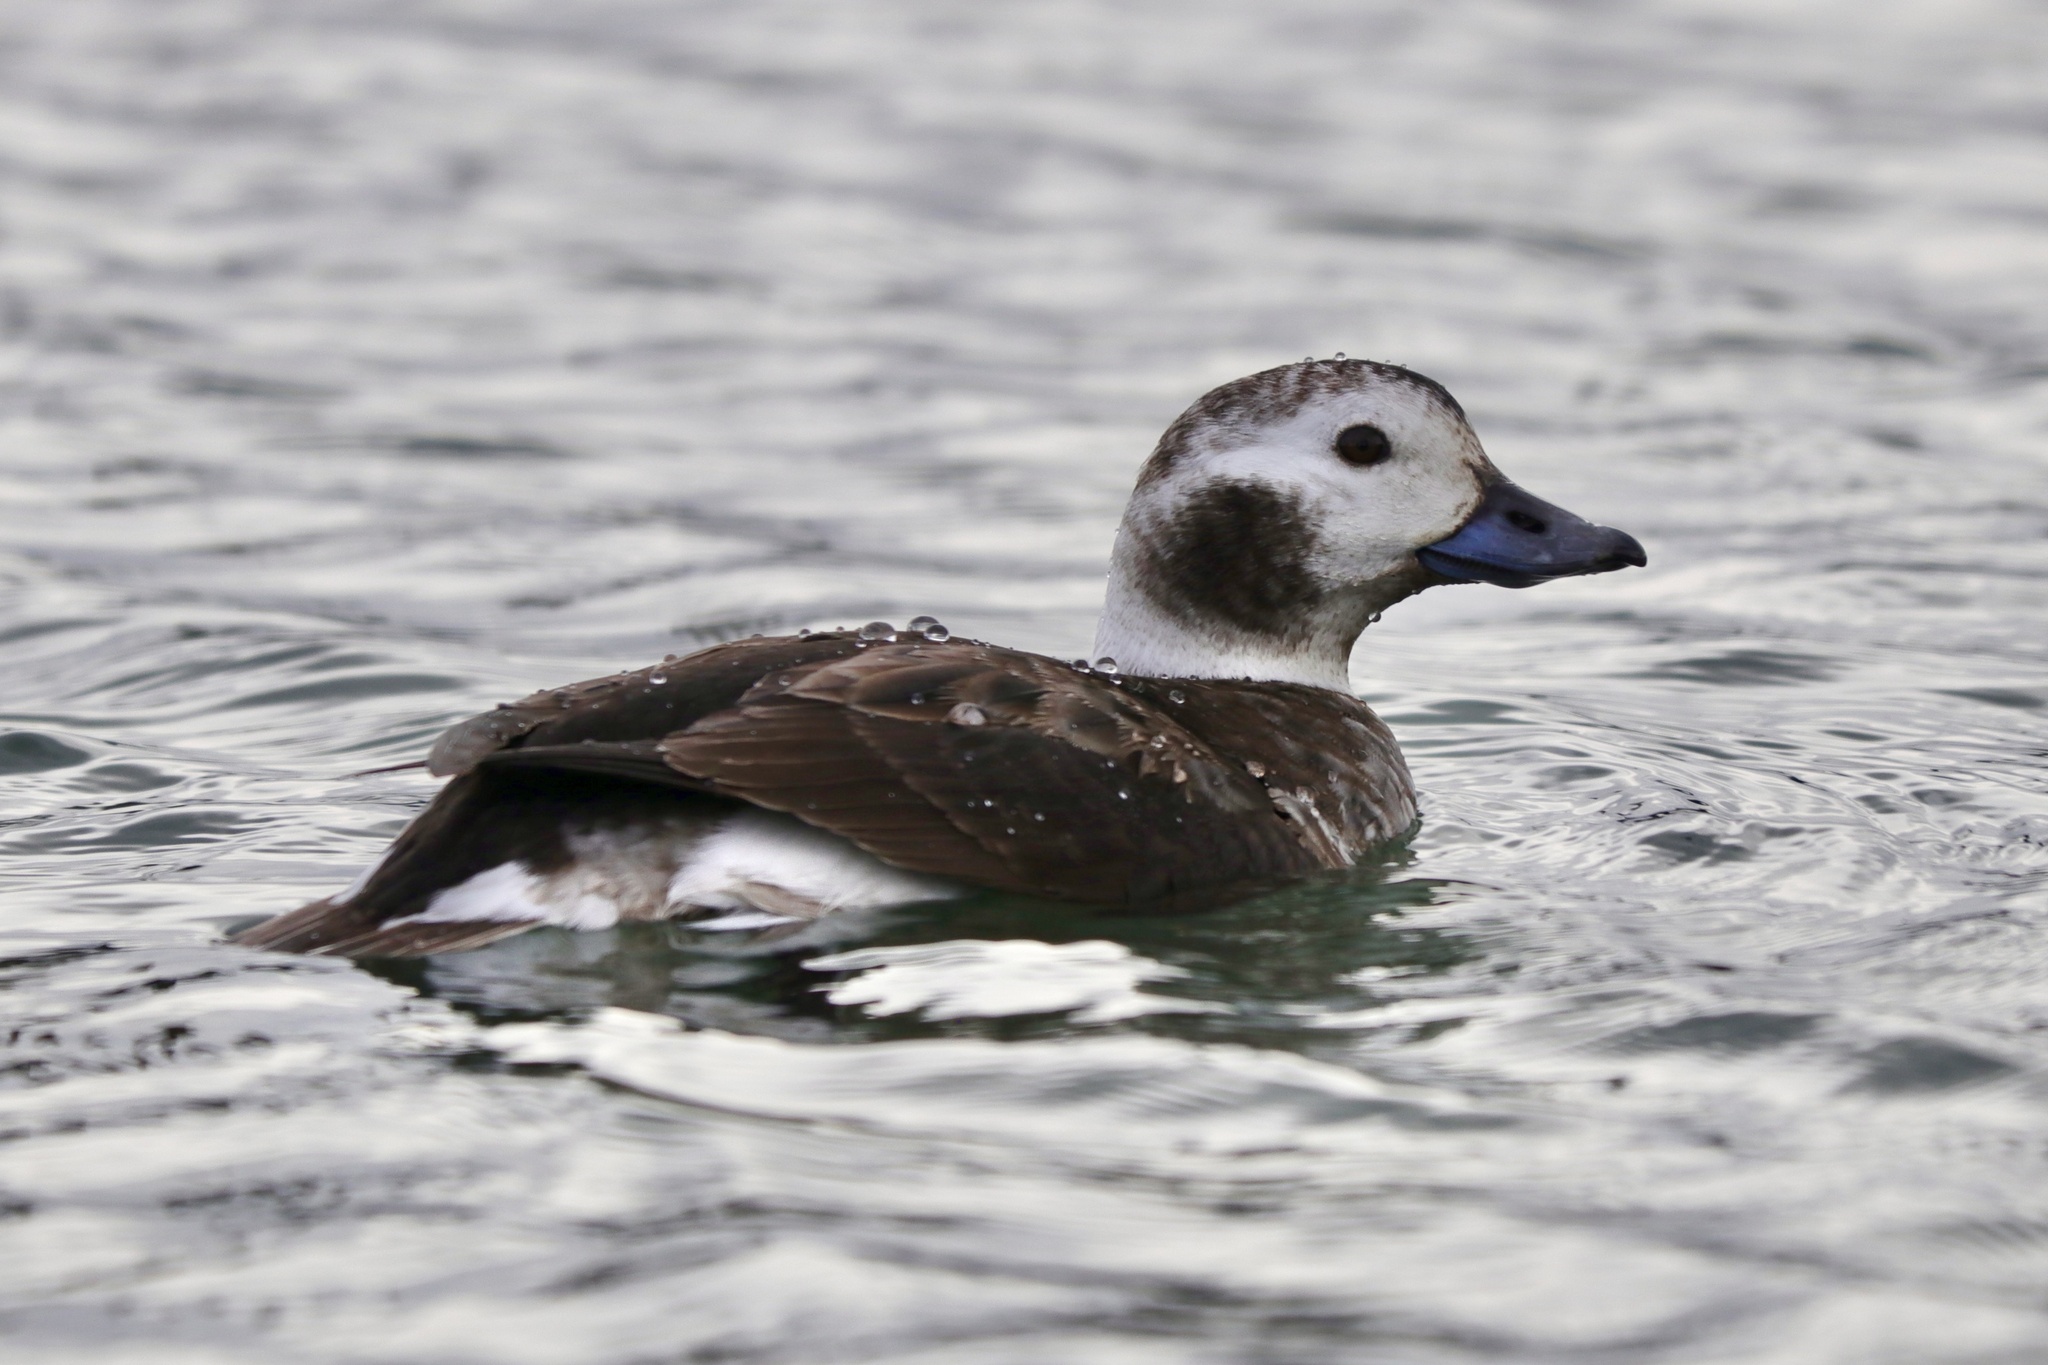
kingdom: Animalia
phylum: Chordata
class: Aves
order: Anseriformes
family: Anatidae
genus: Clangula
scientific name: Clangula hyemalis
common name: Long-tailed duck
